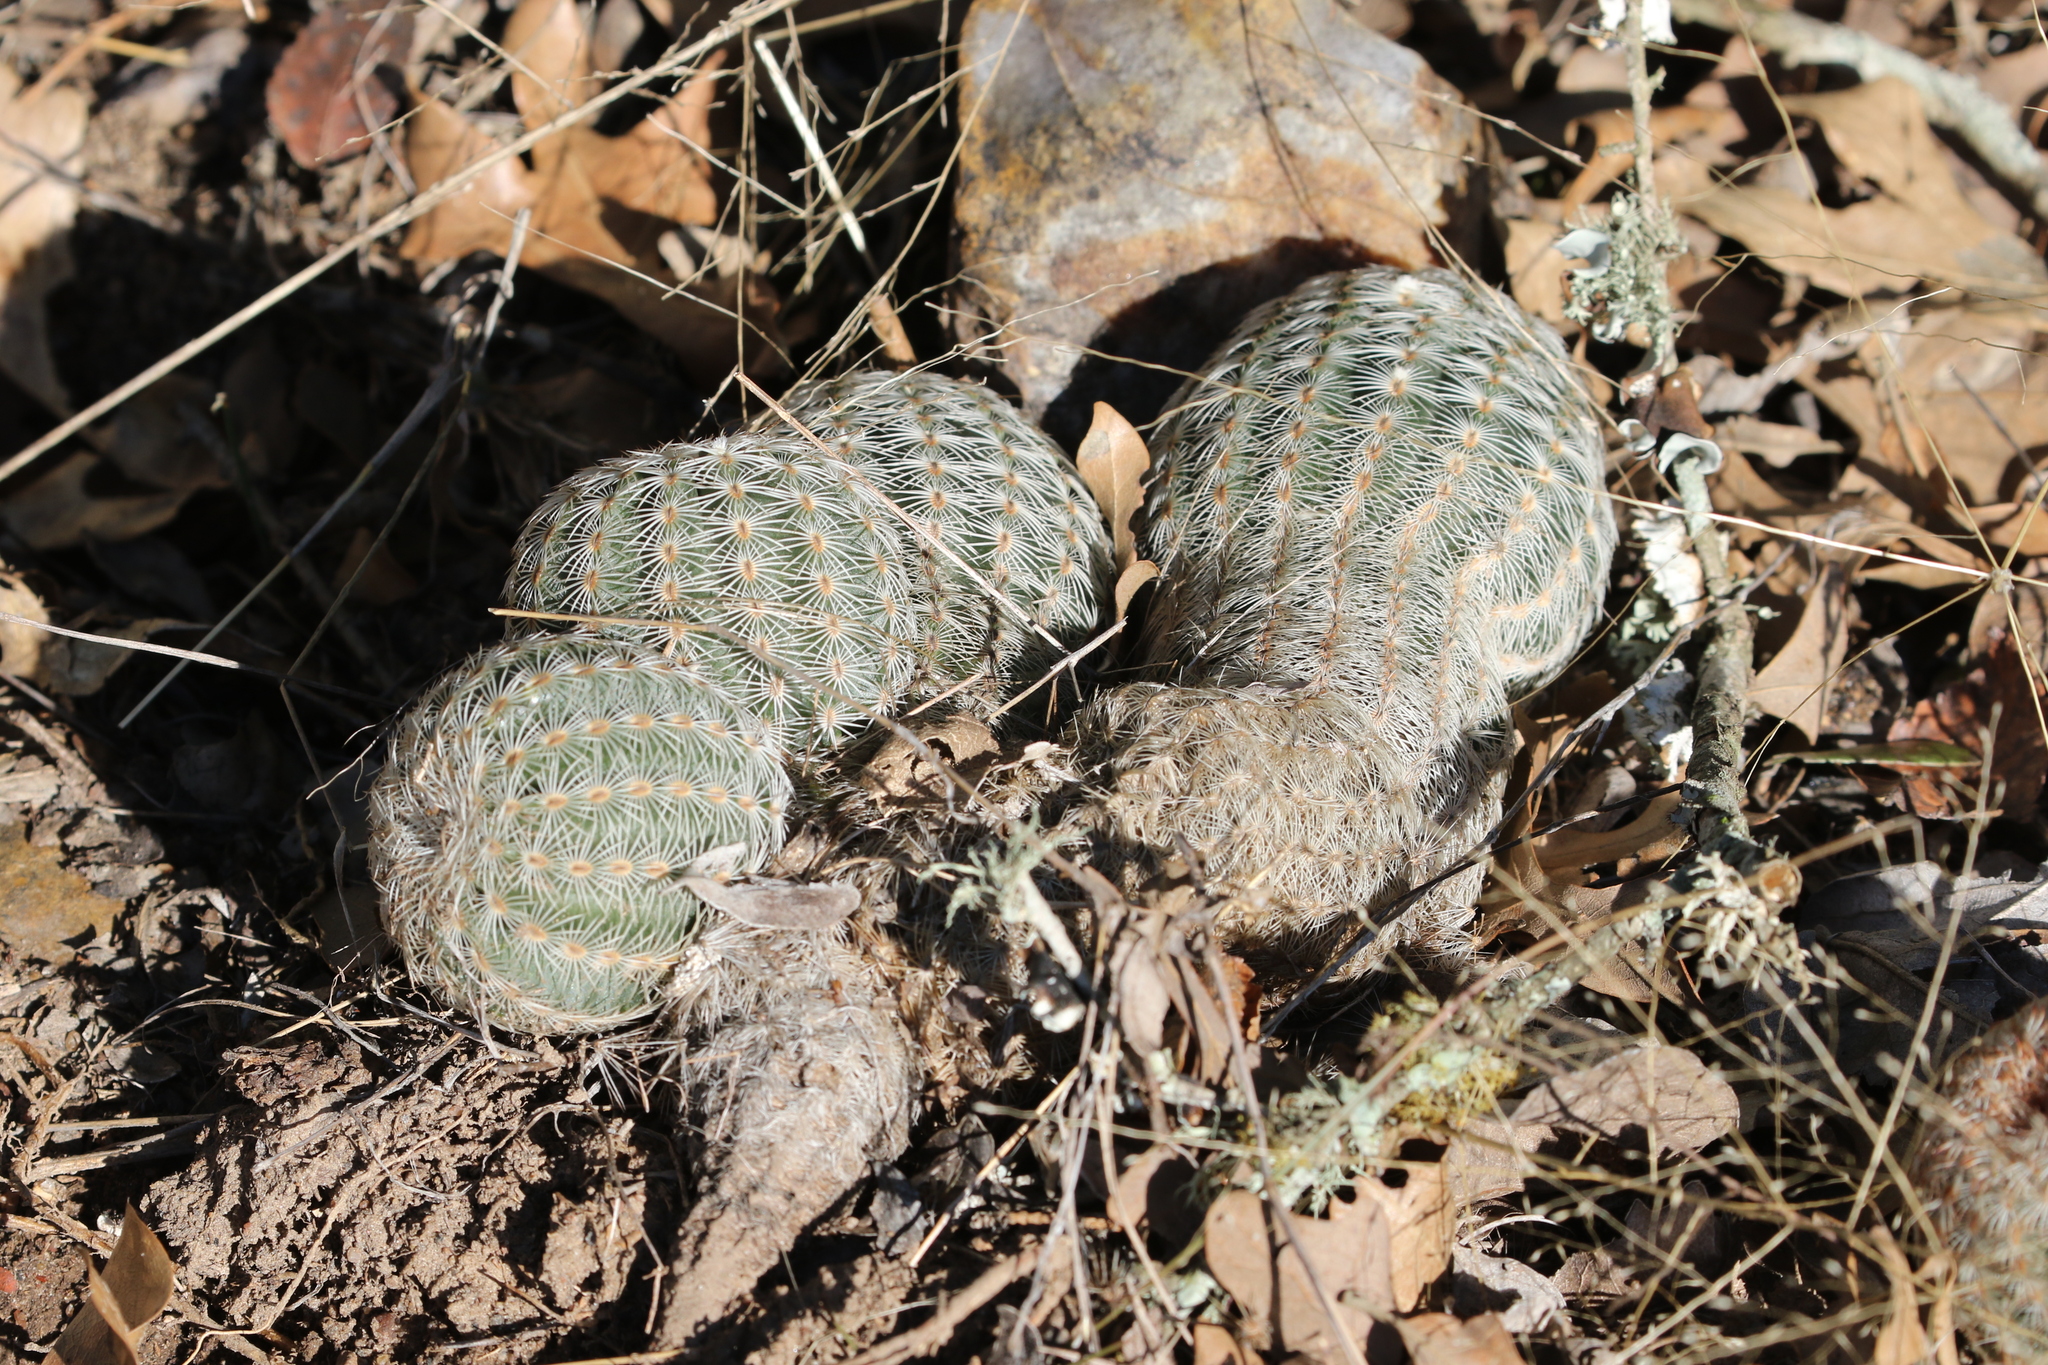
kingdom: Plantae
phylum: Tracheophyta
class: Magnoliopsida
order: Caryophyllales
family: Cactaceae
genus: Echinocereus
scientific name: Echinocereus reichenbachii
